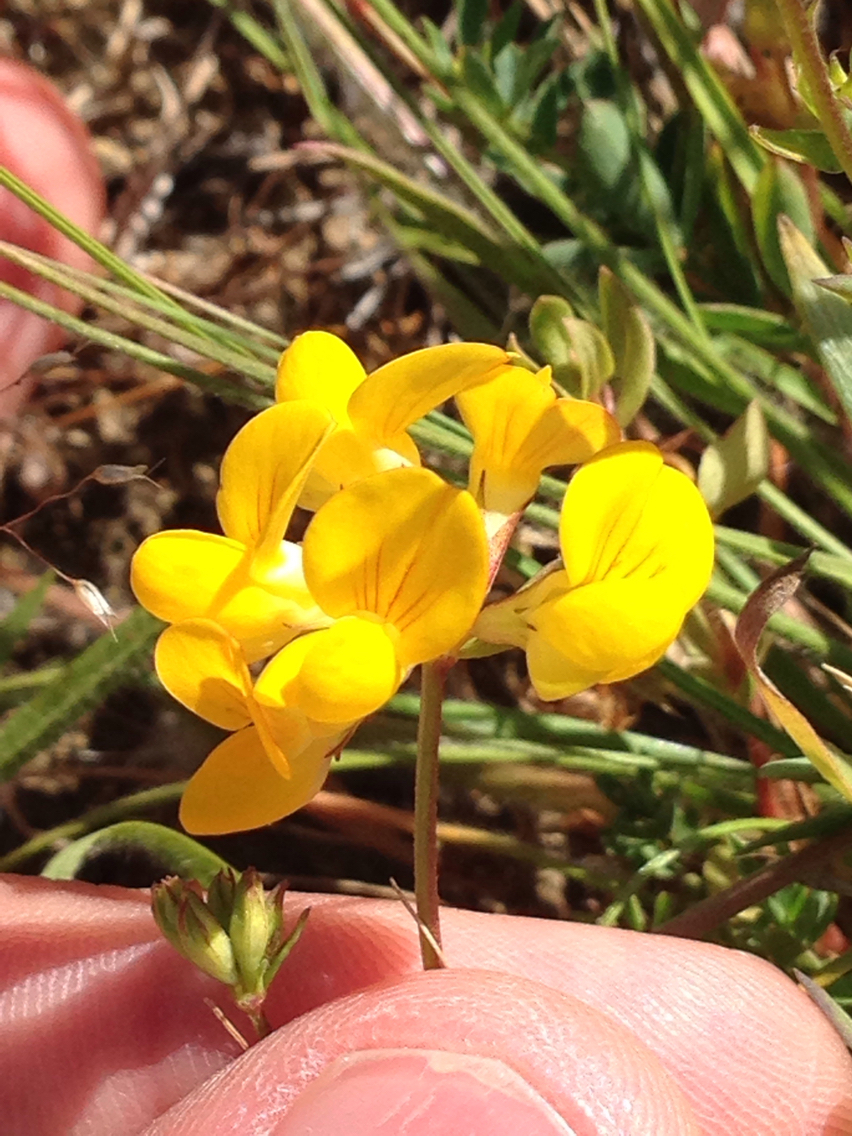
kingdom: Plantae
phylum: Tracheophyta
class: Magnoliopsida
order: Fabales
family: Fabaceae
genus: Lotus
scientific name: Lotus corniculatus
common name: Common bird's-foot-trefoil
